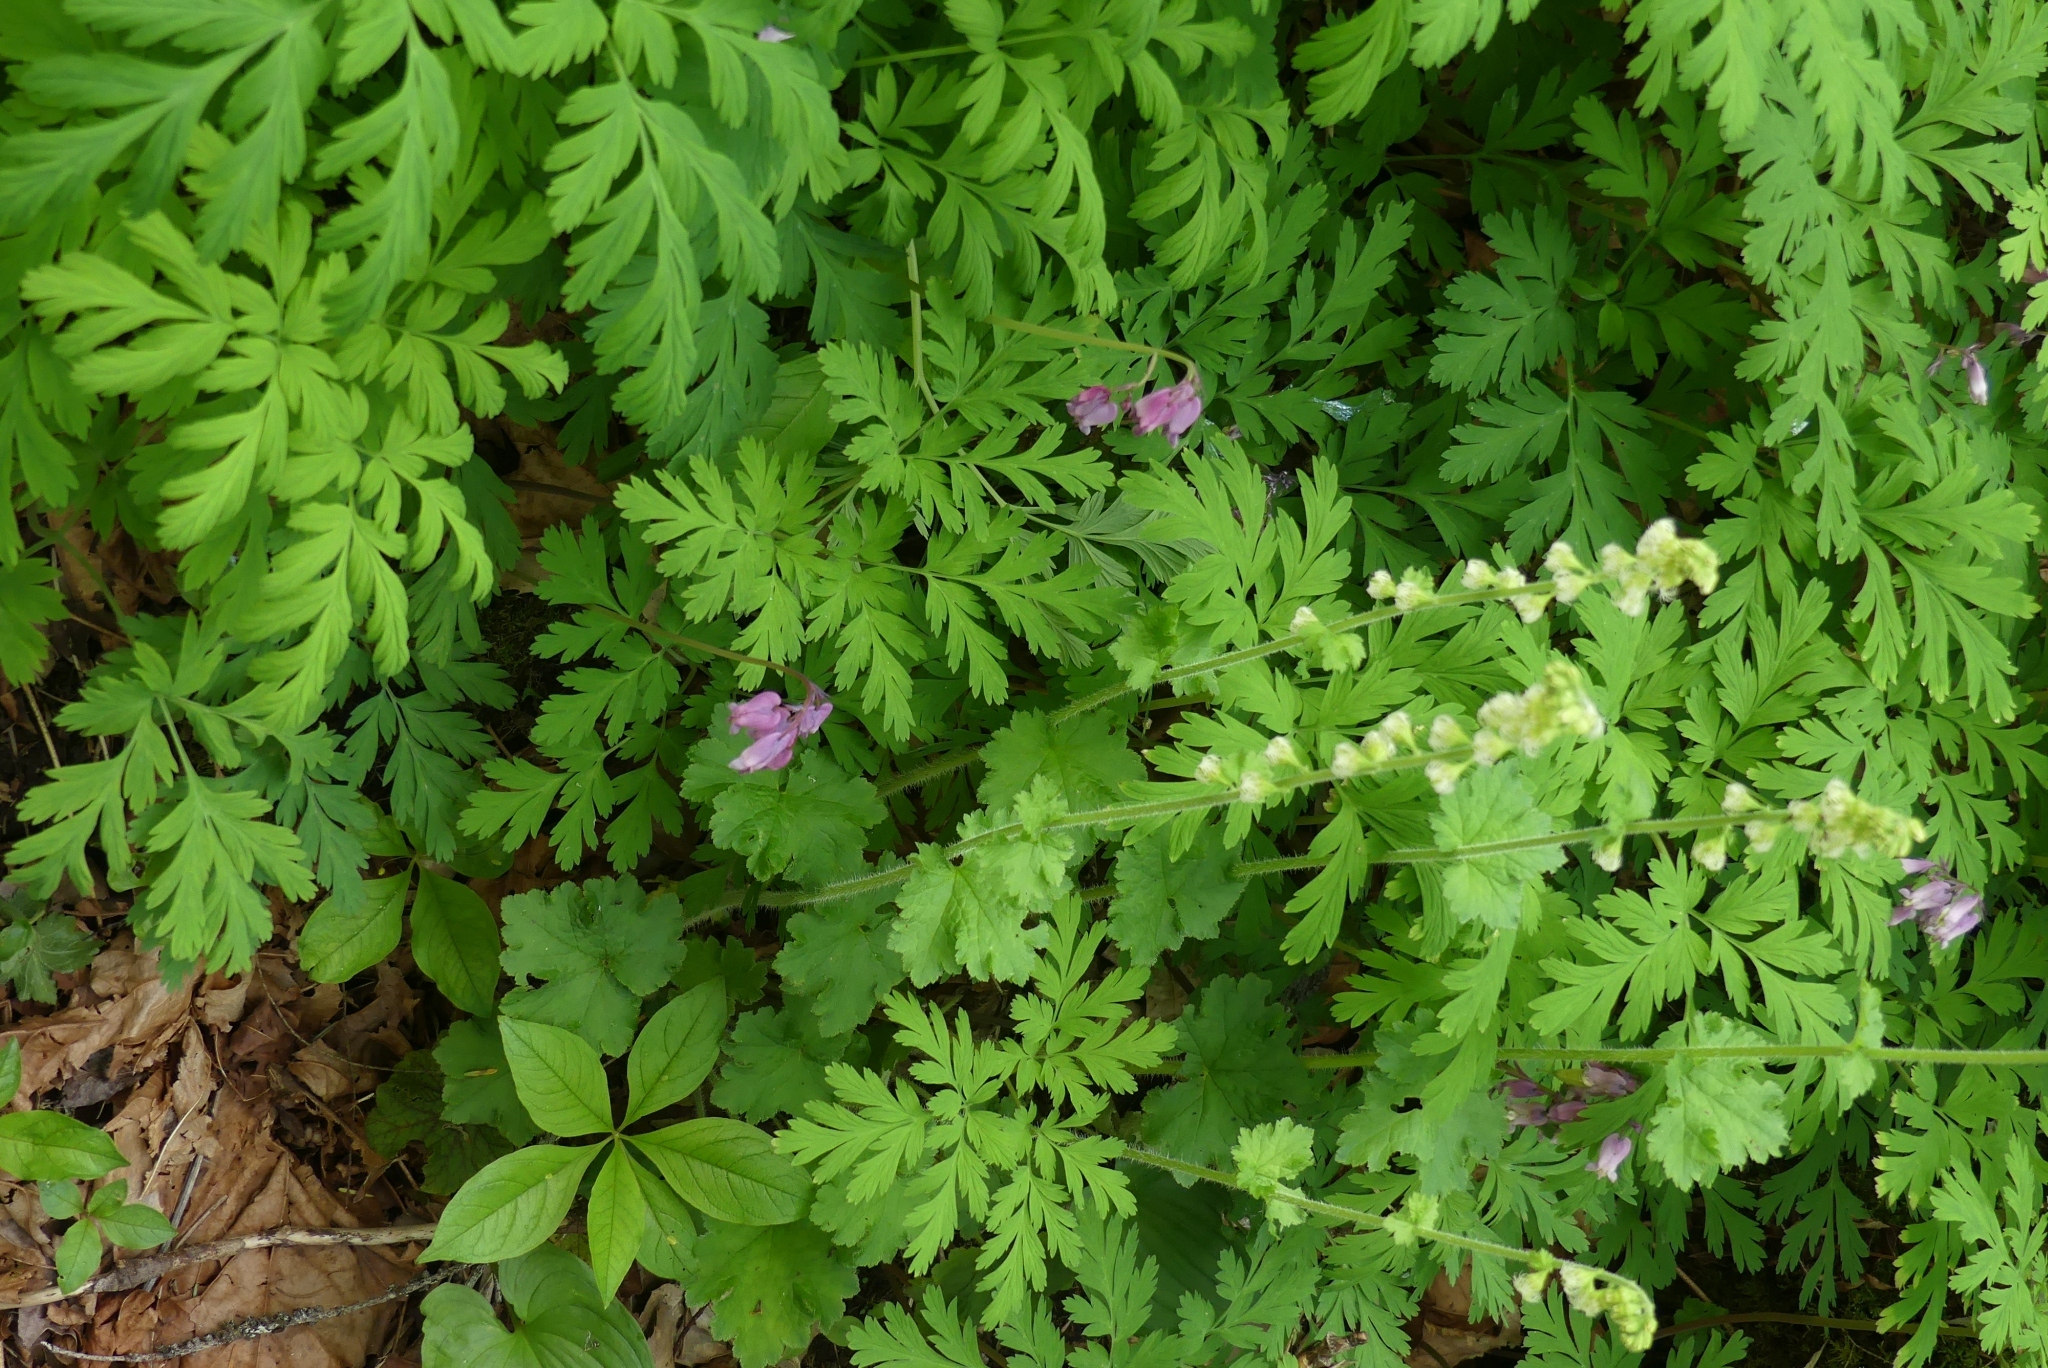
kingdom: Plantae
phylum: Tracheophyta
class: Magnoliopsida
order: Saxifragales
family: Saxifragaceae
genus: Tellima
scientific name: Tellima grandiflora
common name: Fringecups
